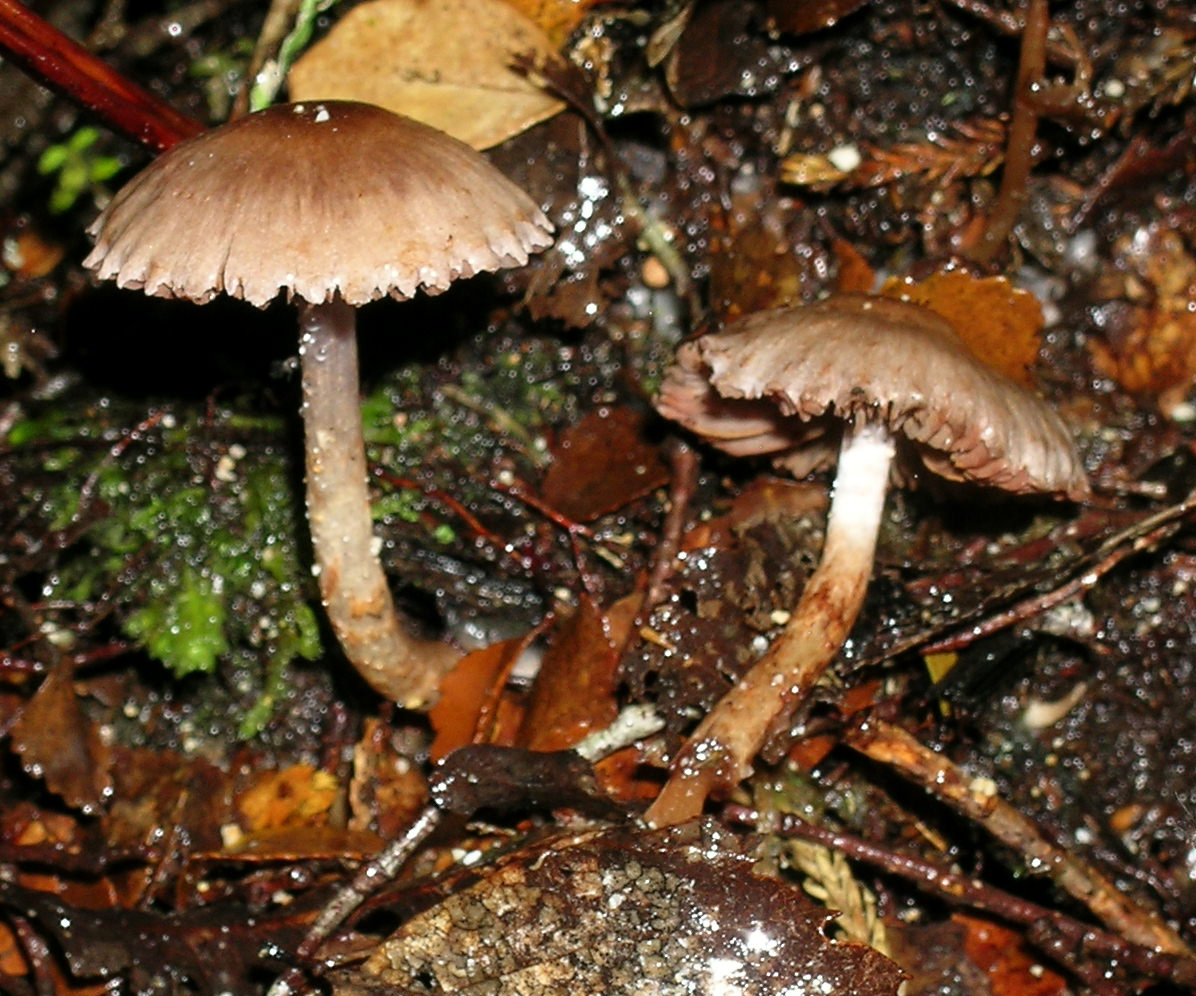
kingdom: Fungi
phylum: Basidiomycota
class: Agaricomycetes
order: Agaricales
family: Cortinariaceae
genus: Cortinarius
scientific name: Cortinarius rattinoides
